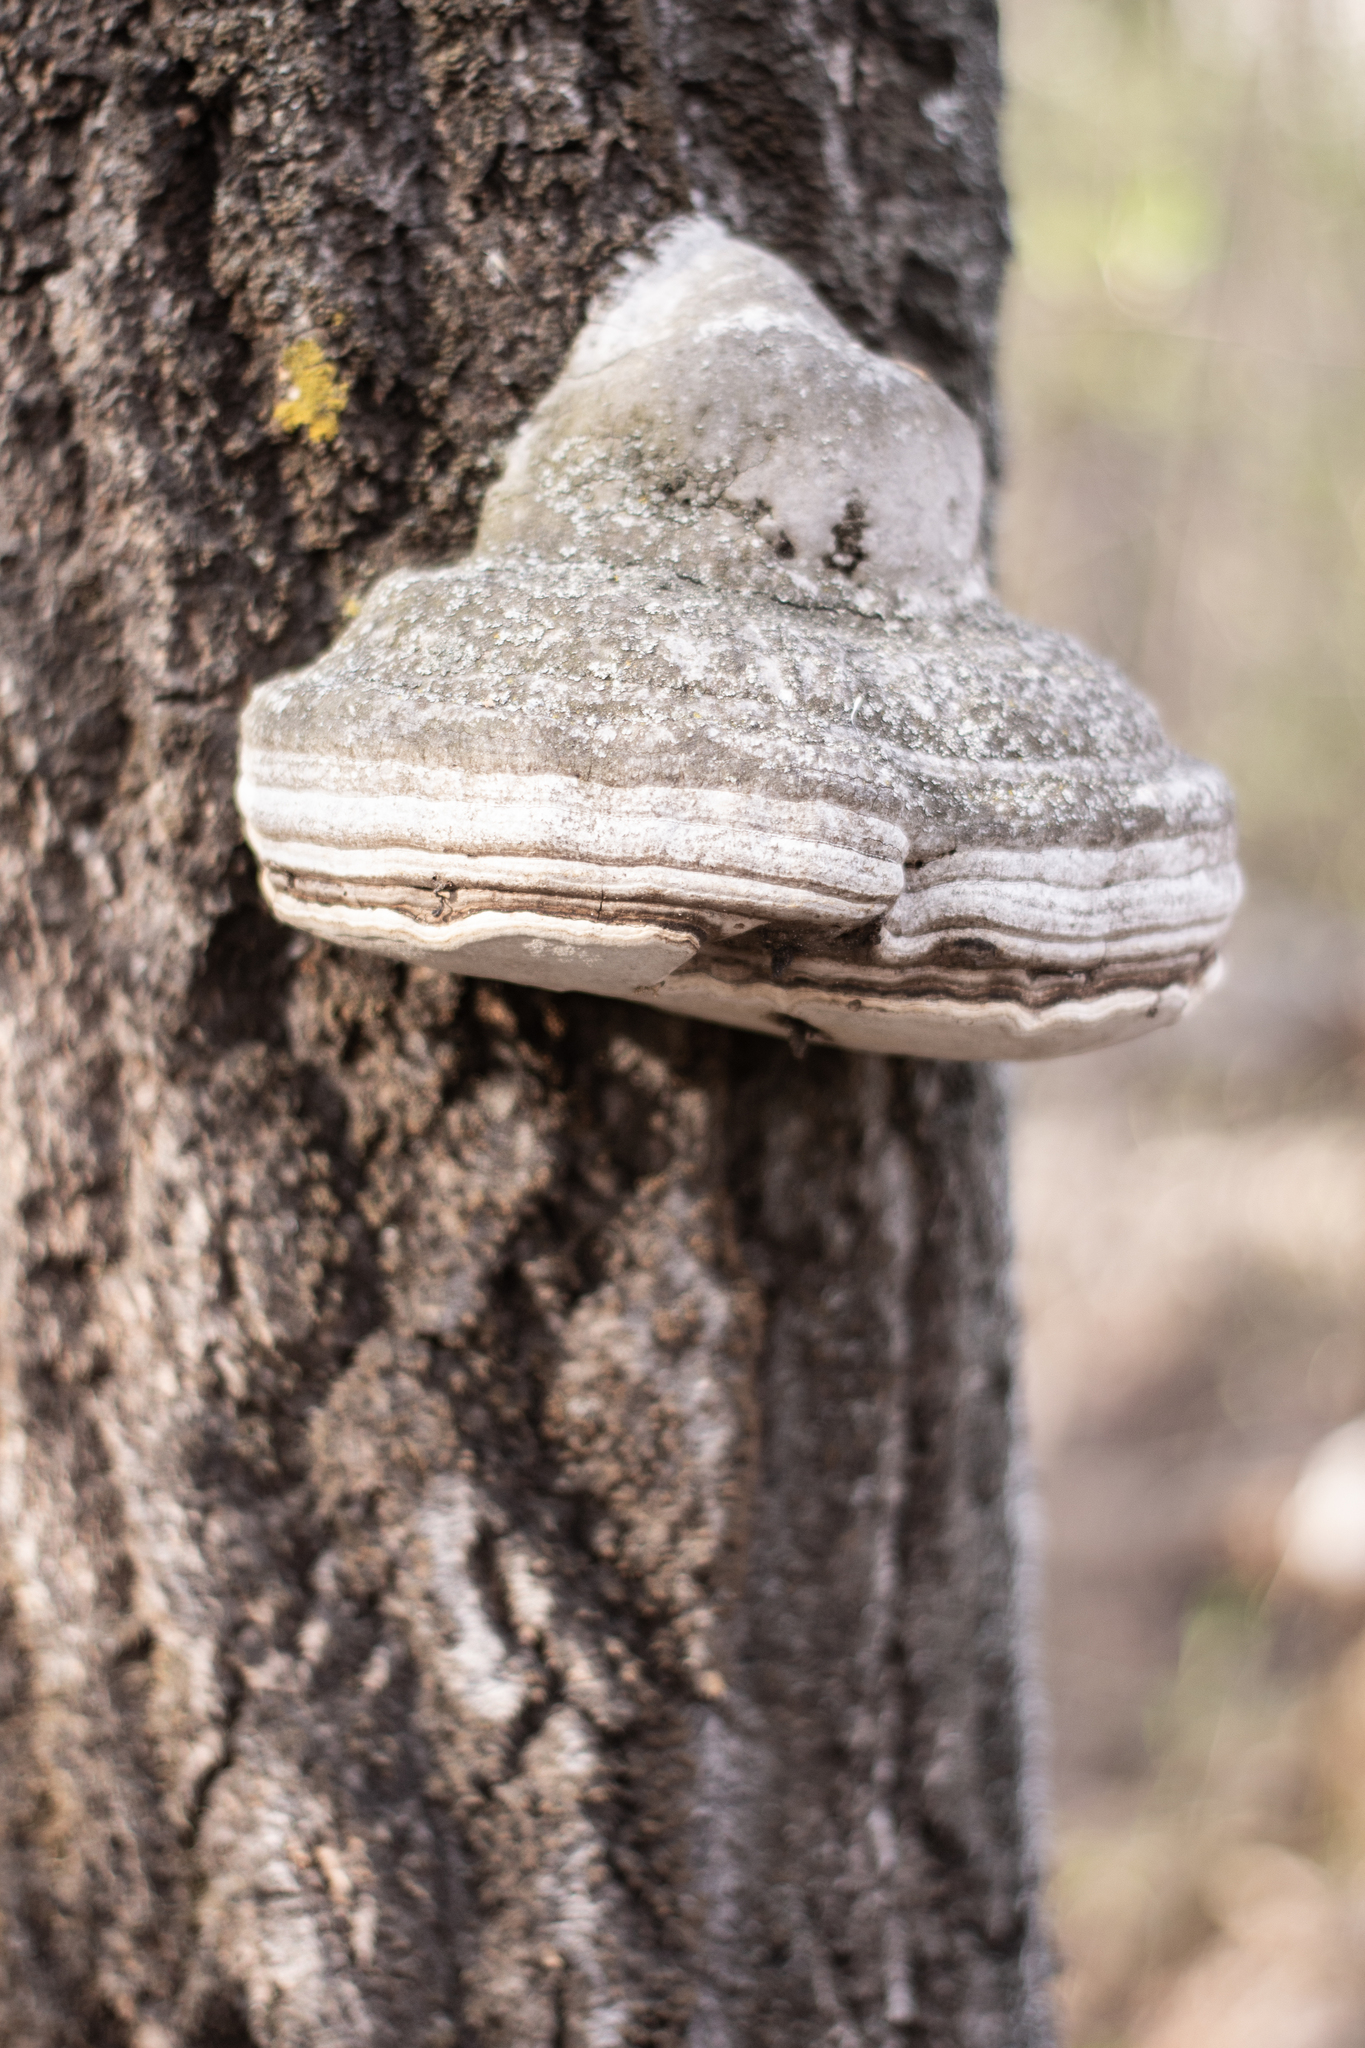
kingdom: Fungi
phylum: Basidiomycota
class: Agaricomycetes
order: Polyporales
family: Polyporaceae
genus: Fomes
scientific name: Fomes fomentarius
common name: Hoof fungus
